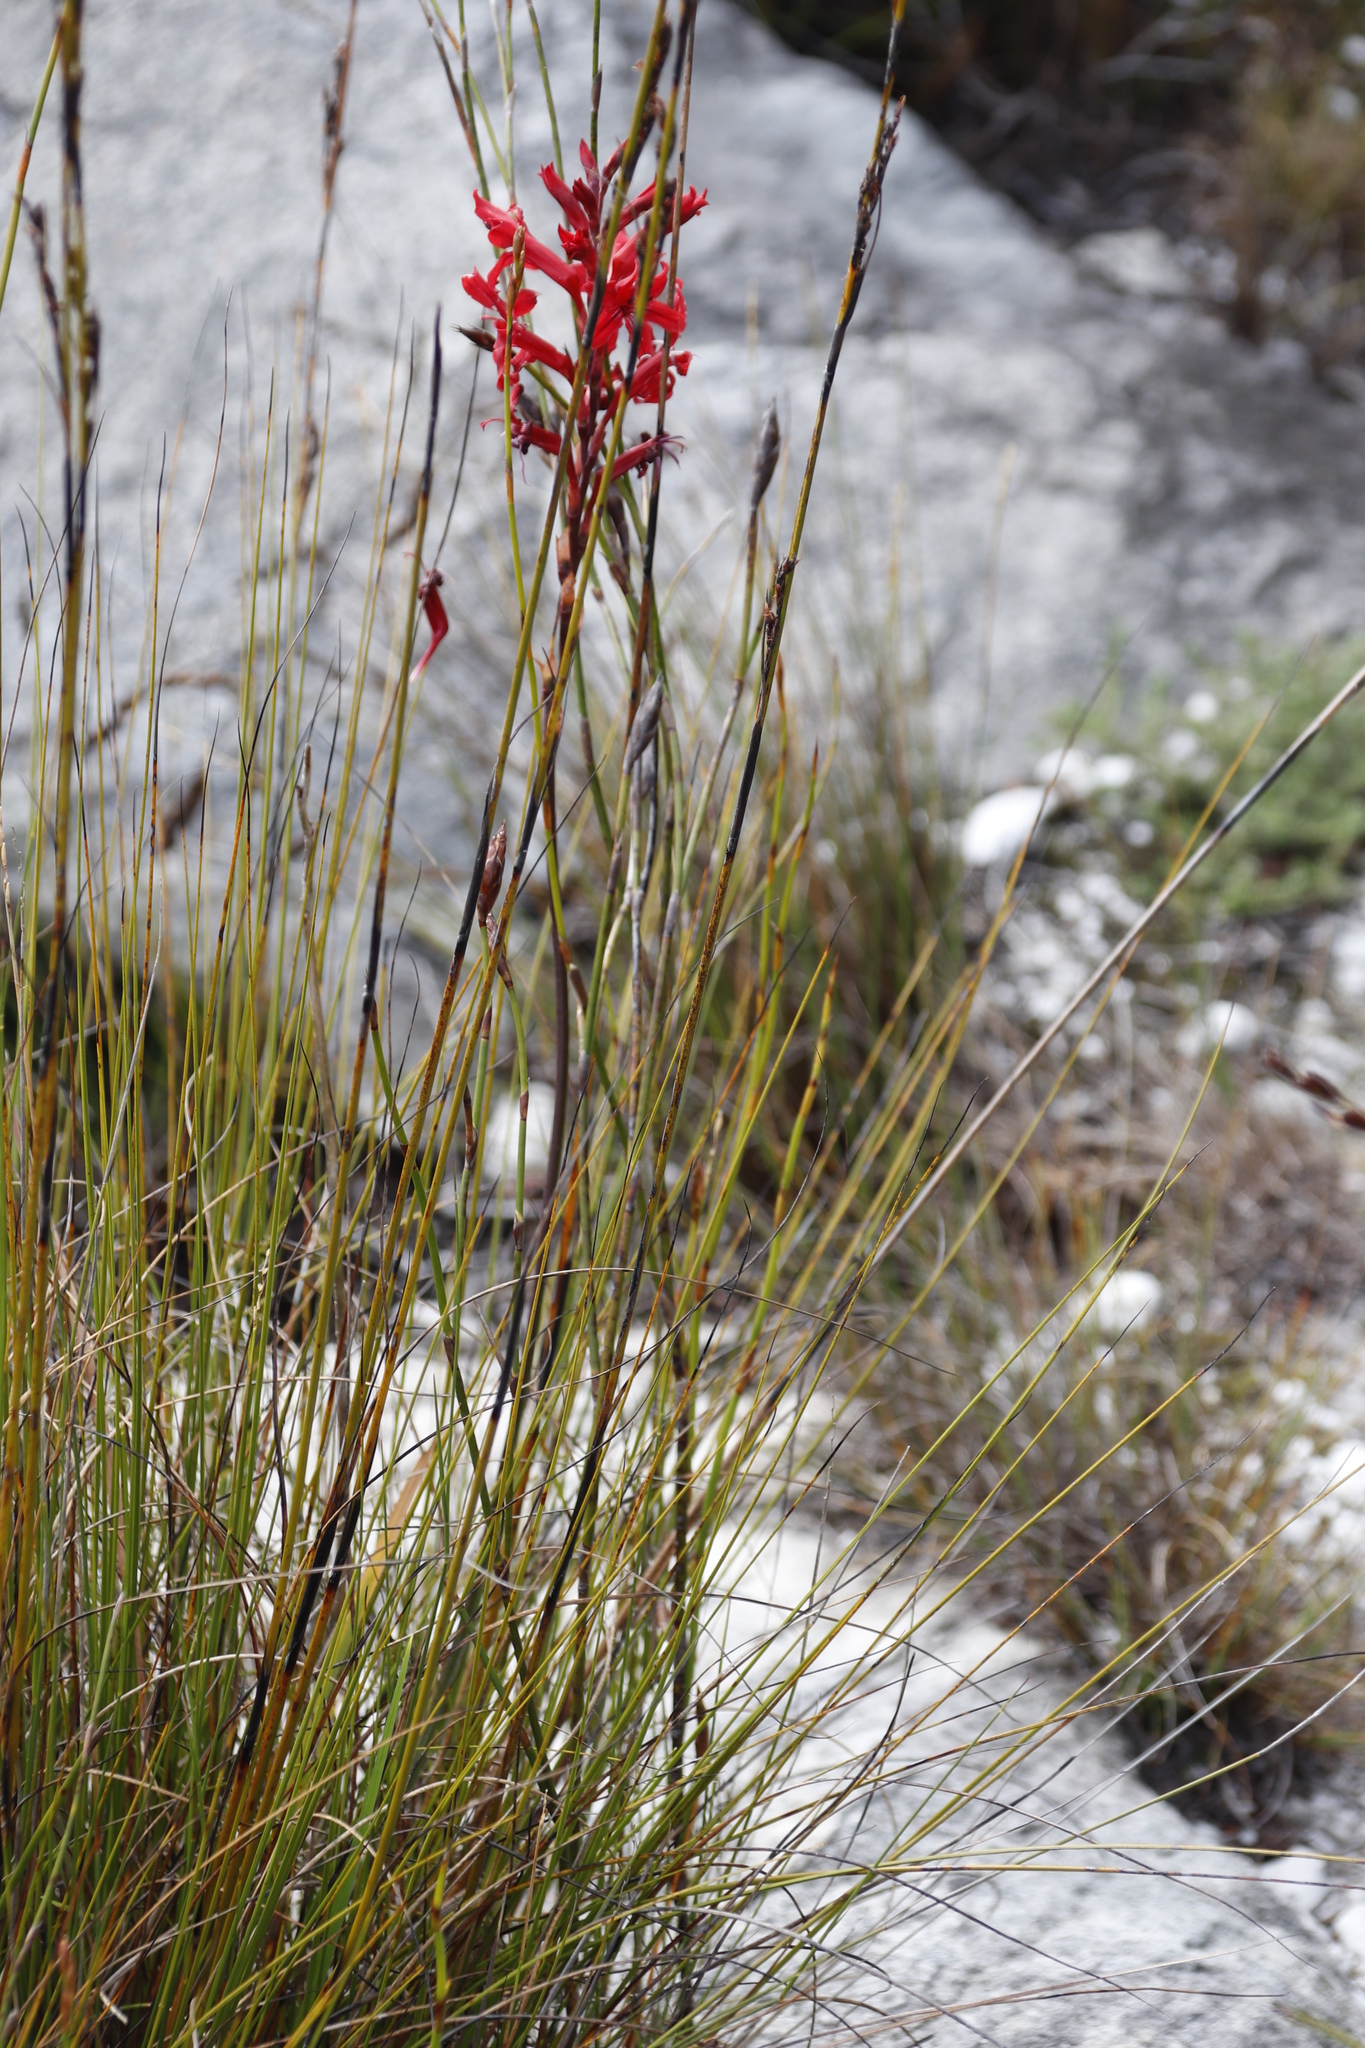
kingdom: Plantae
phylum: Tracheophyta
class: Liliopsida
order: Asparagales
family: Iridaceae
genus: Tritoniopsis
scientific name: Tritoniopsis pulchra
